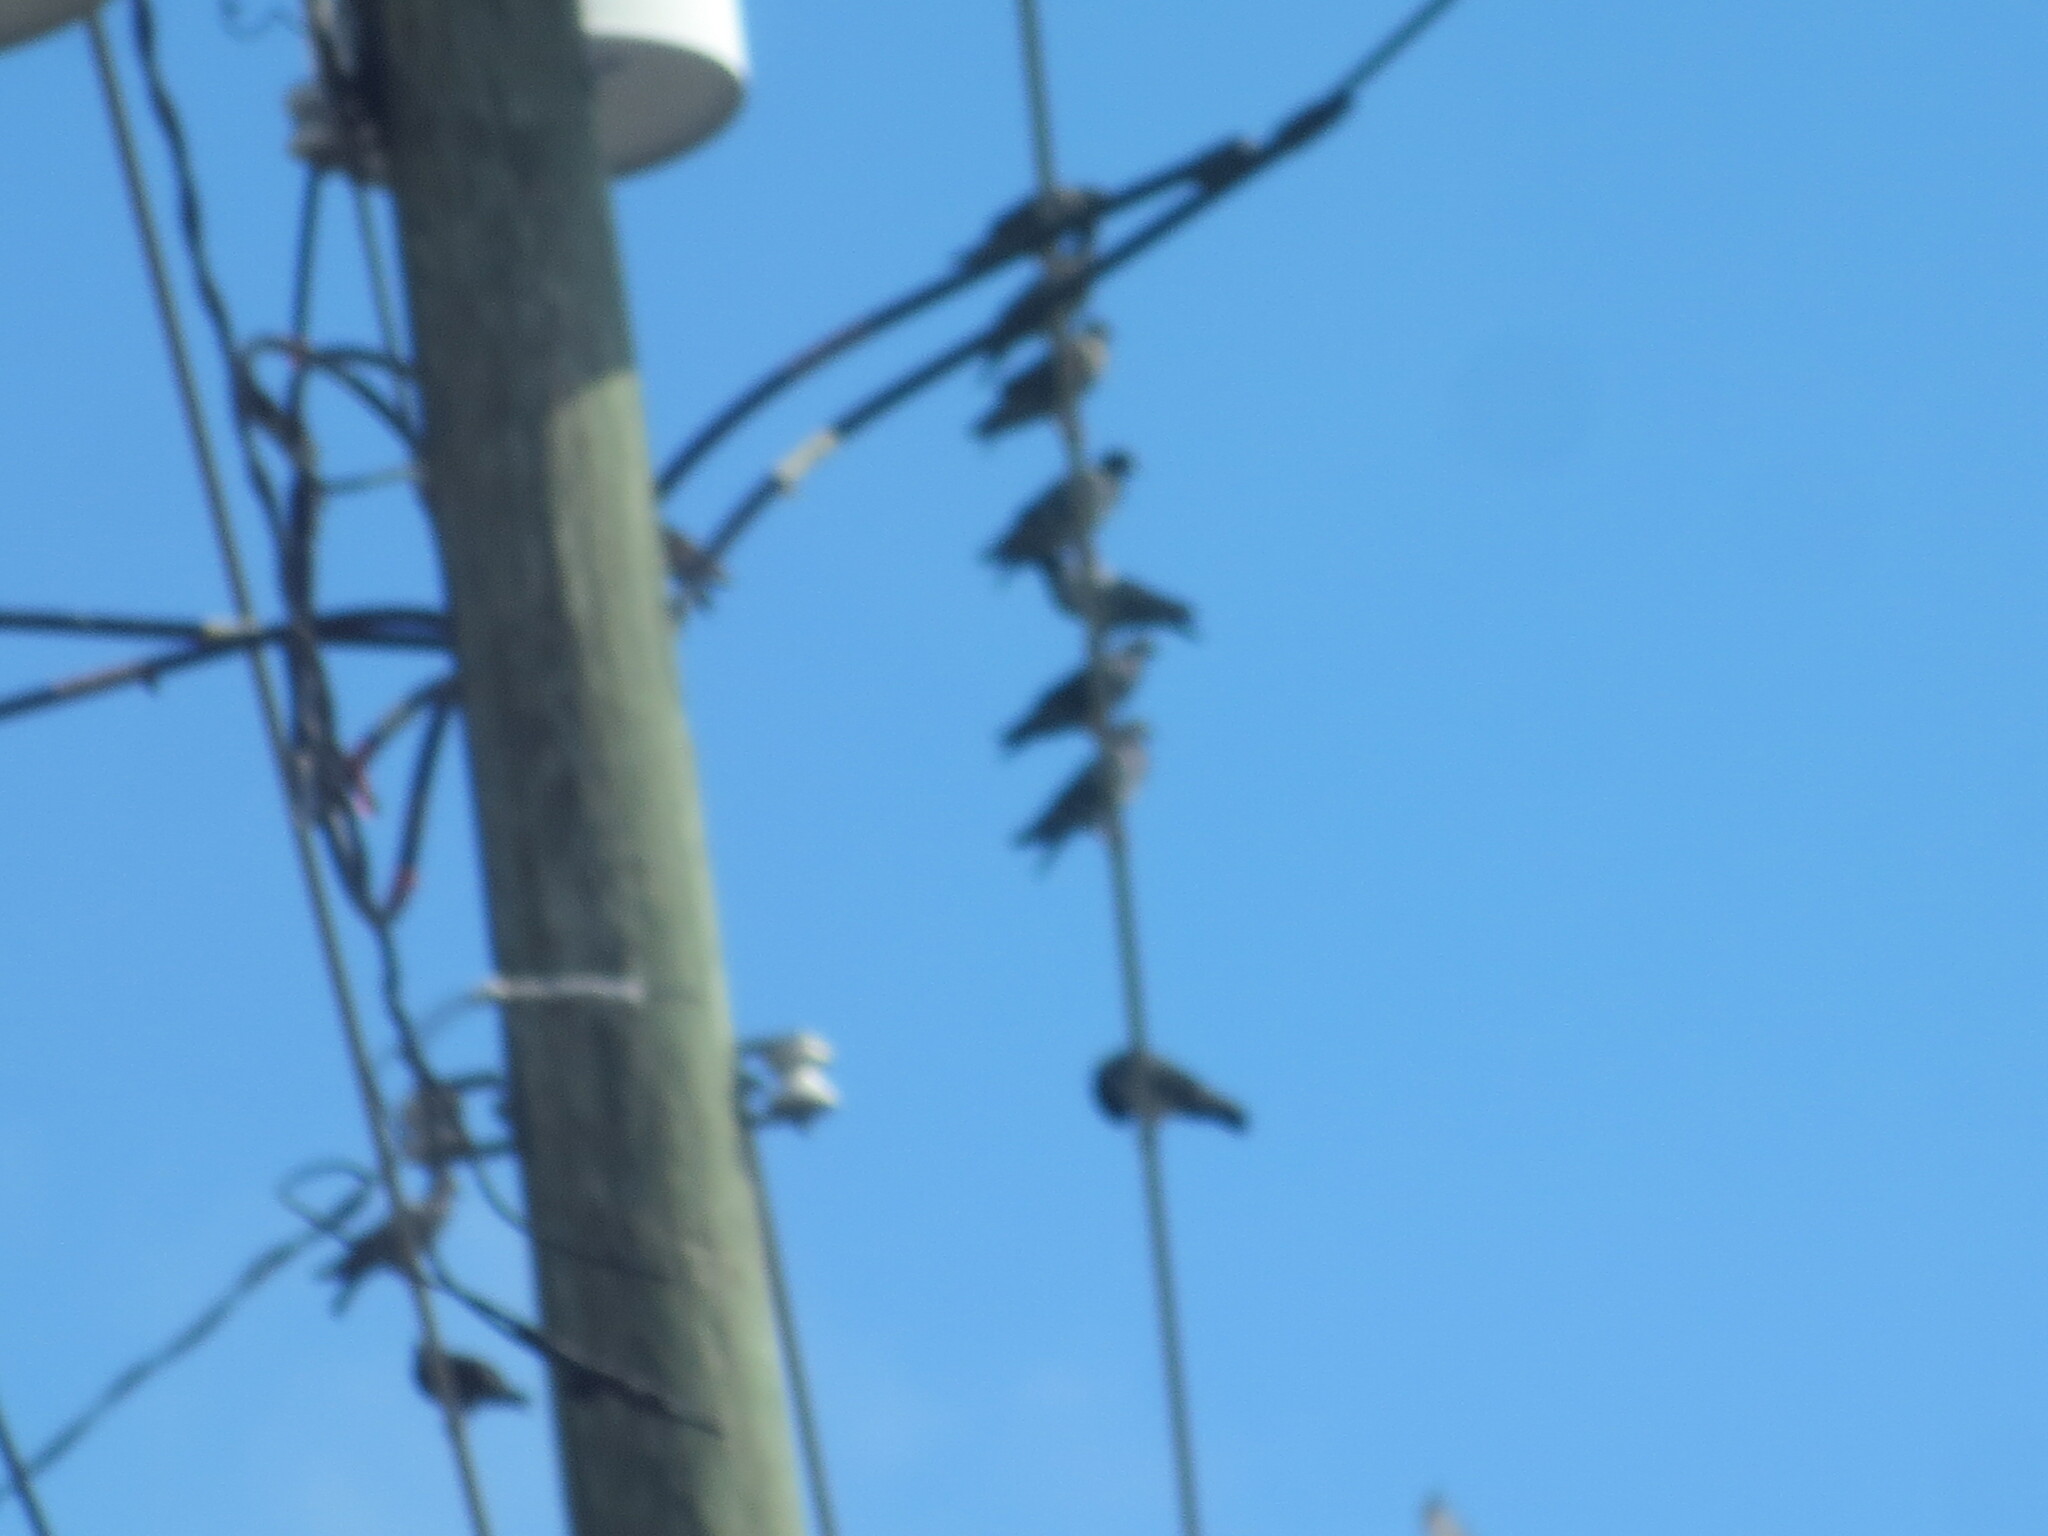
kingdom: Animalia
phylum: Chordata
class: Aves
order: Columbiformes
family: Columbidae
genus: Columba
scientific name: Columba livia
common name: Rock pigeon
